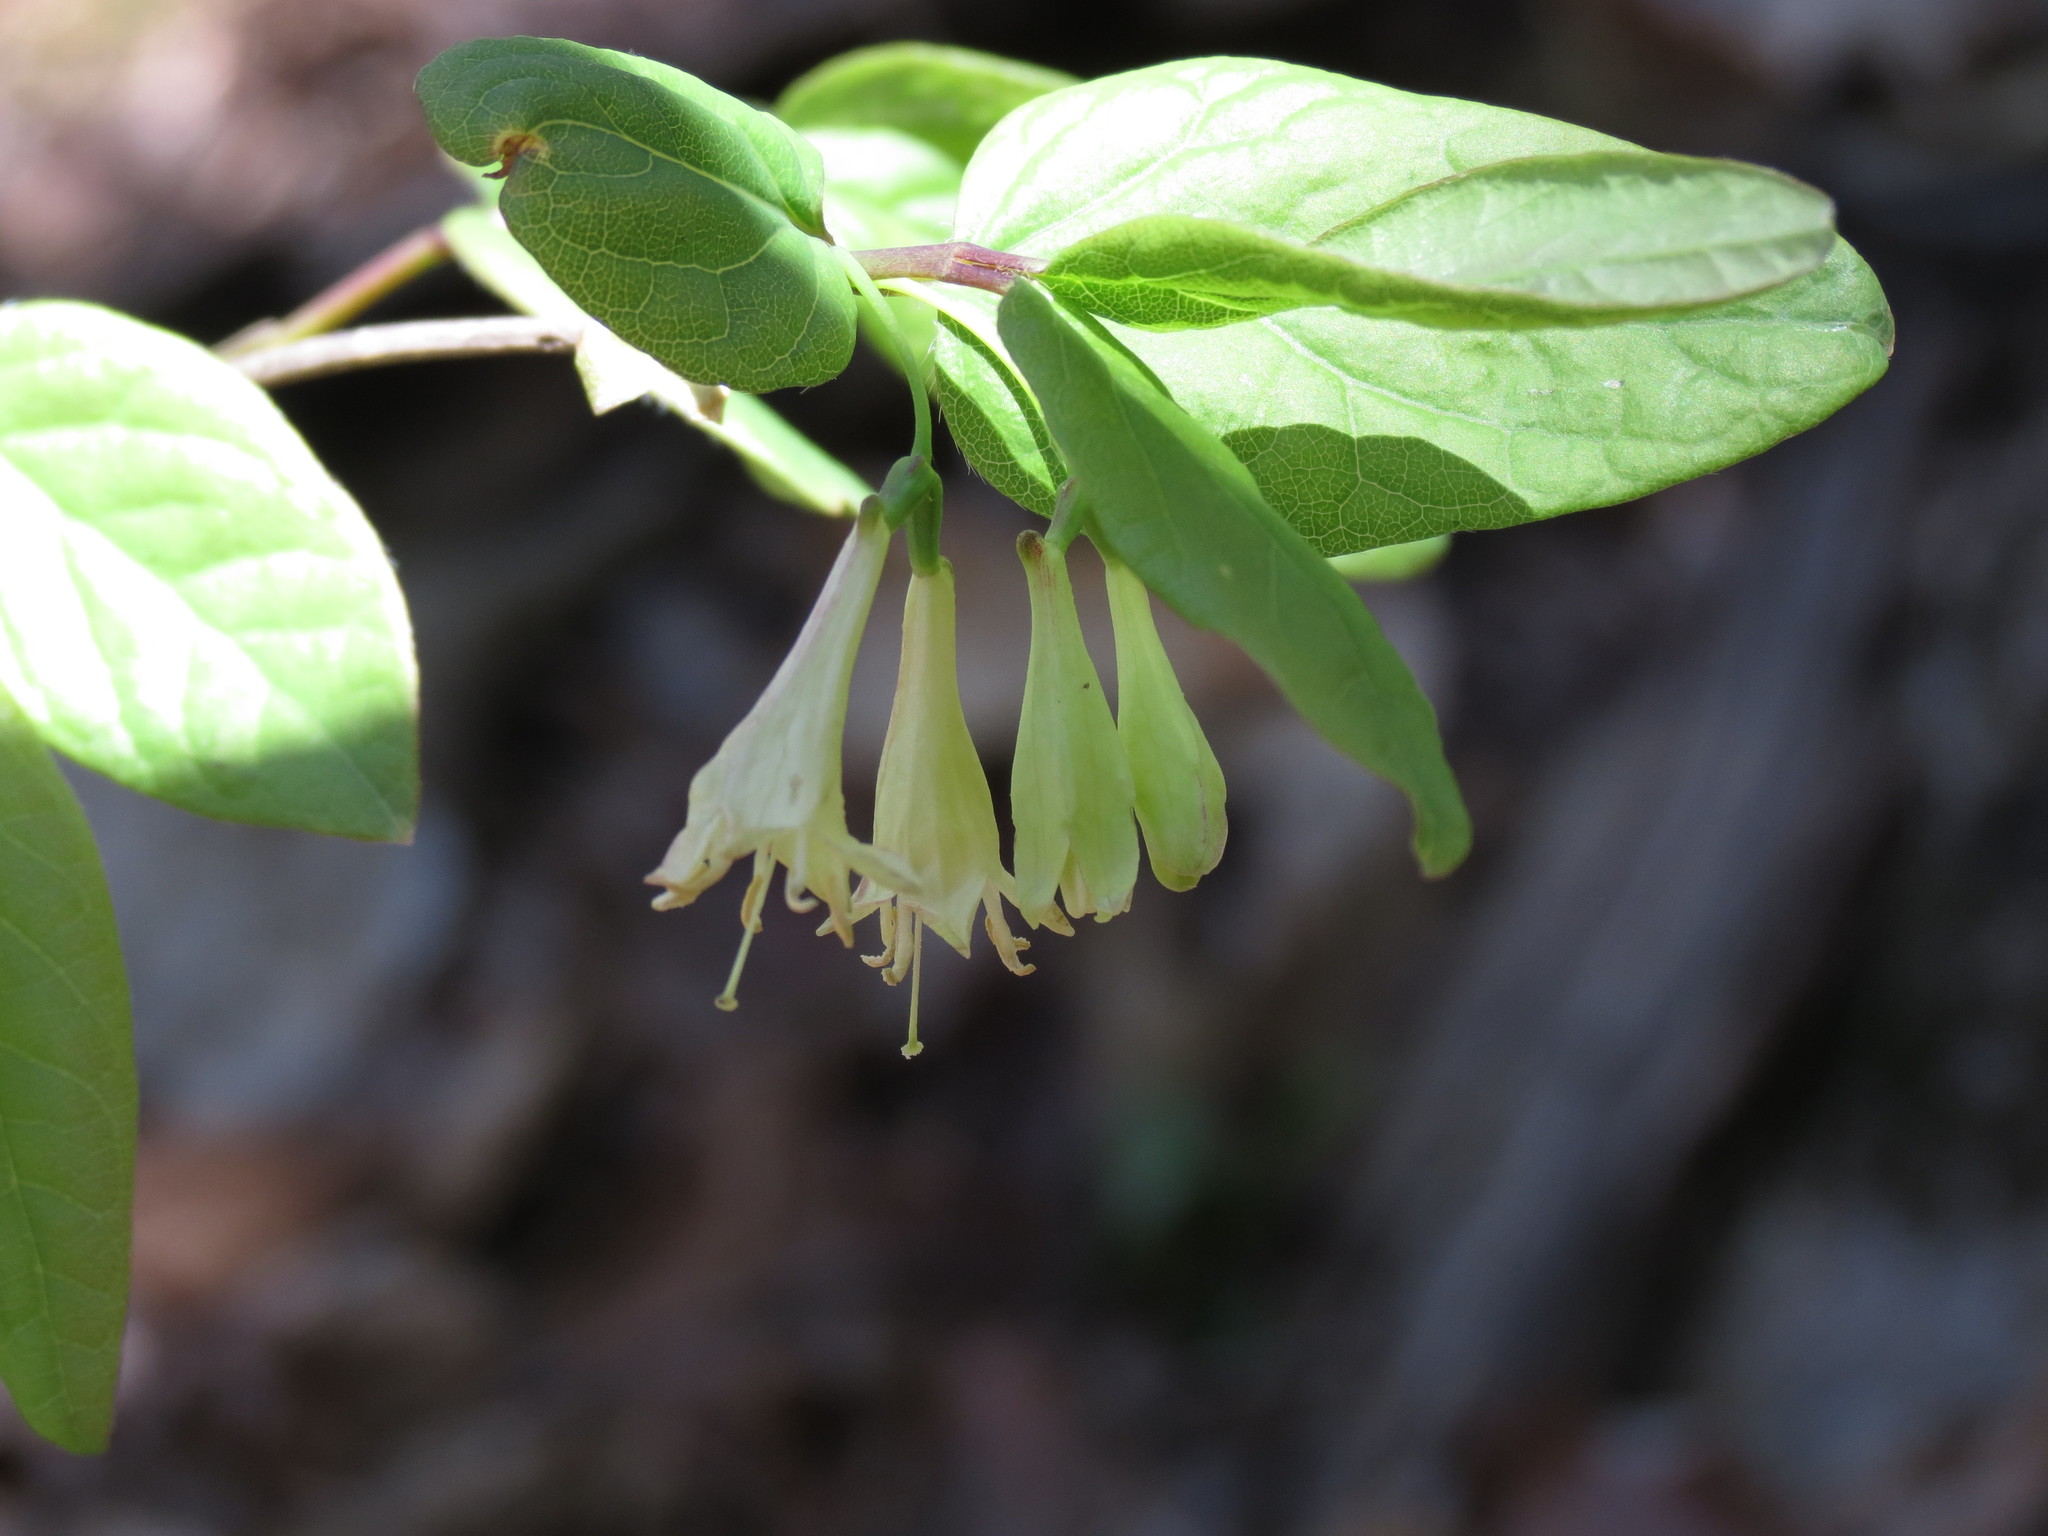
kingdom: Plantae
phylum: Tracheophyta
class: Magnoliopsida
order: Dipsacales
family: Caprifoliaceae
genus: Lonicera
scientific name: Lonicera canadensis
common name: American fly-honeysuckle
